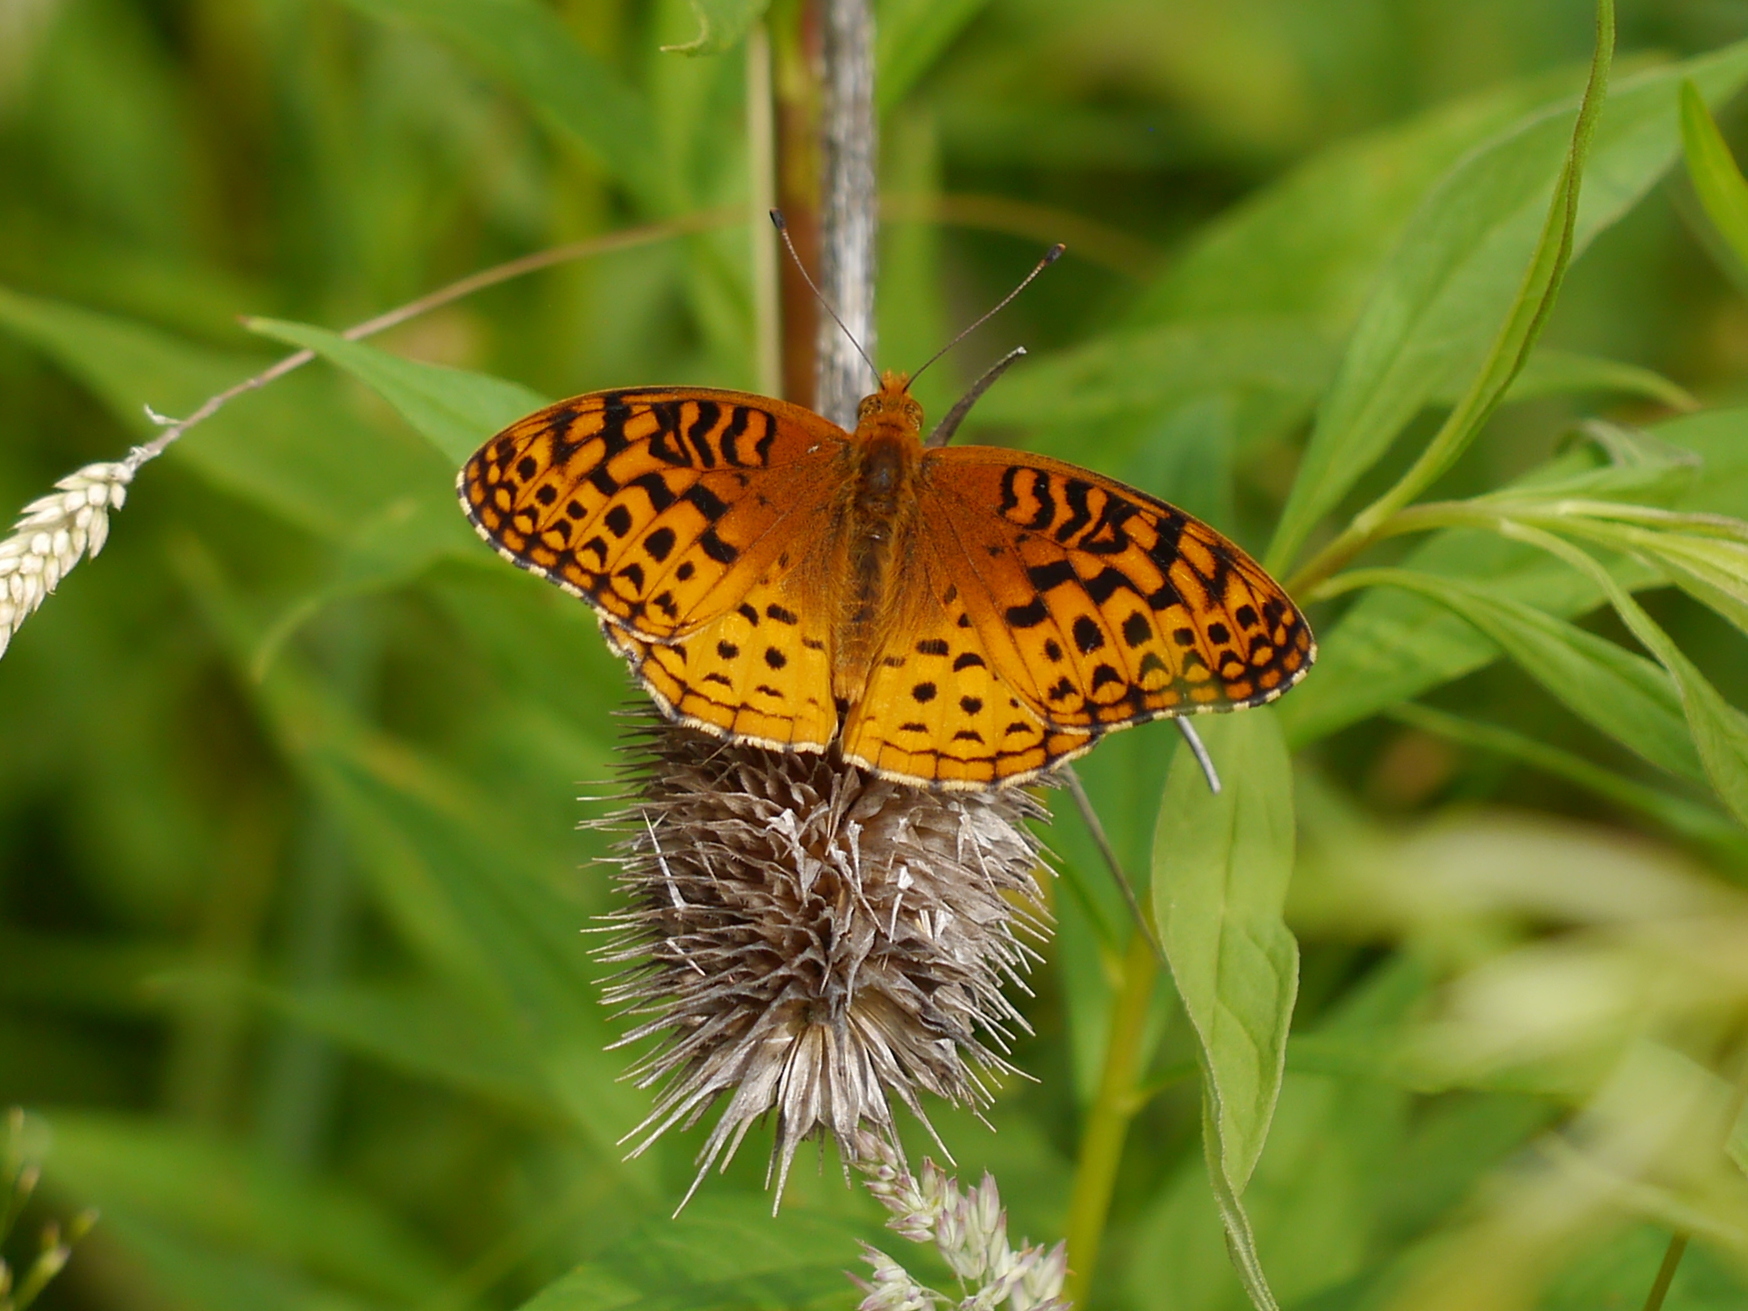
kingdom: Animalia
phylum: Arthropoda
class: Insecta
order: Lepidoptera
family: Nymphalidae
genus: Speyeria
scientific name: Speyeria cybele
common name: Great spangled fritillary
